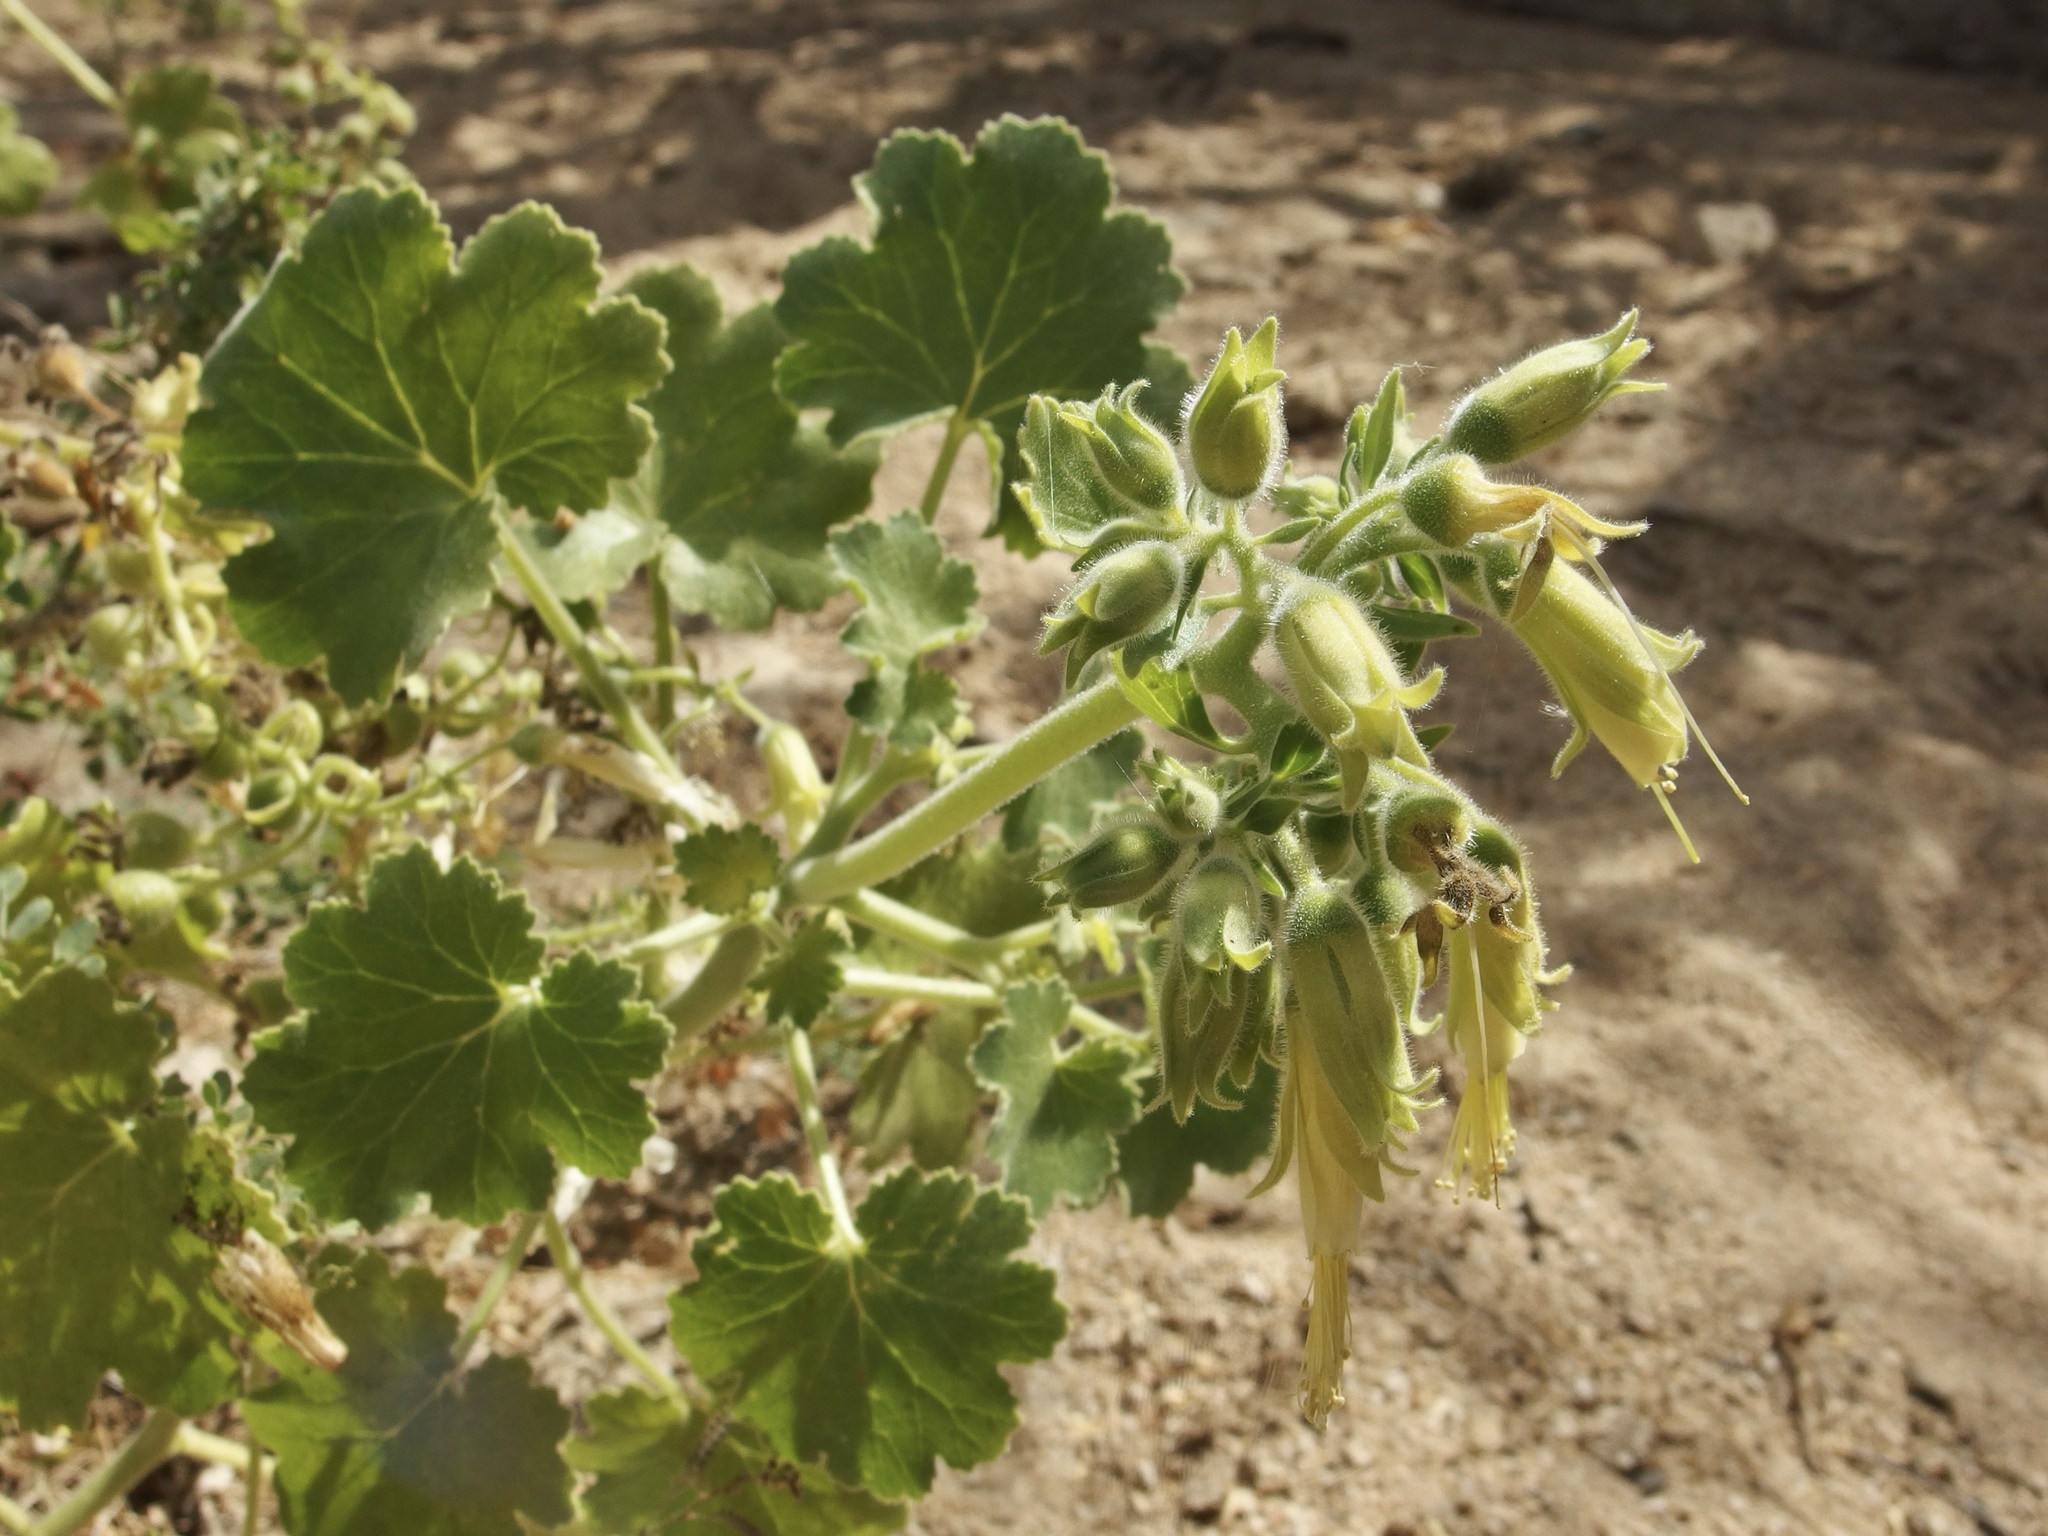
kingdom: Plantae
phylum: Tracheophyta
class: Magnoliopsida
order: Cornales
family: Loasaceae
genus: Eucnide
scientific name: Eucnide cordata
